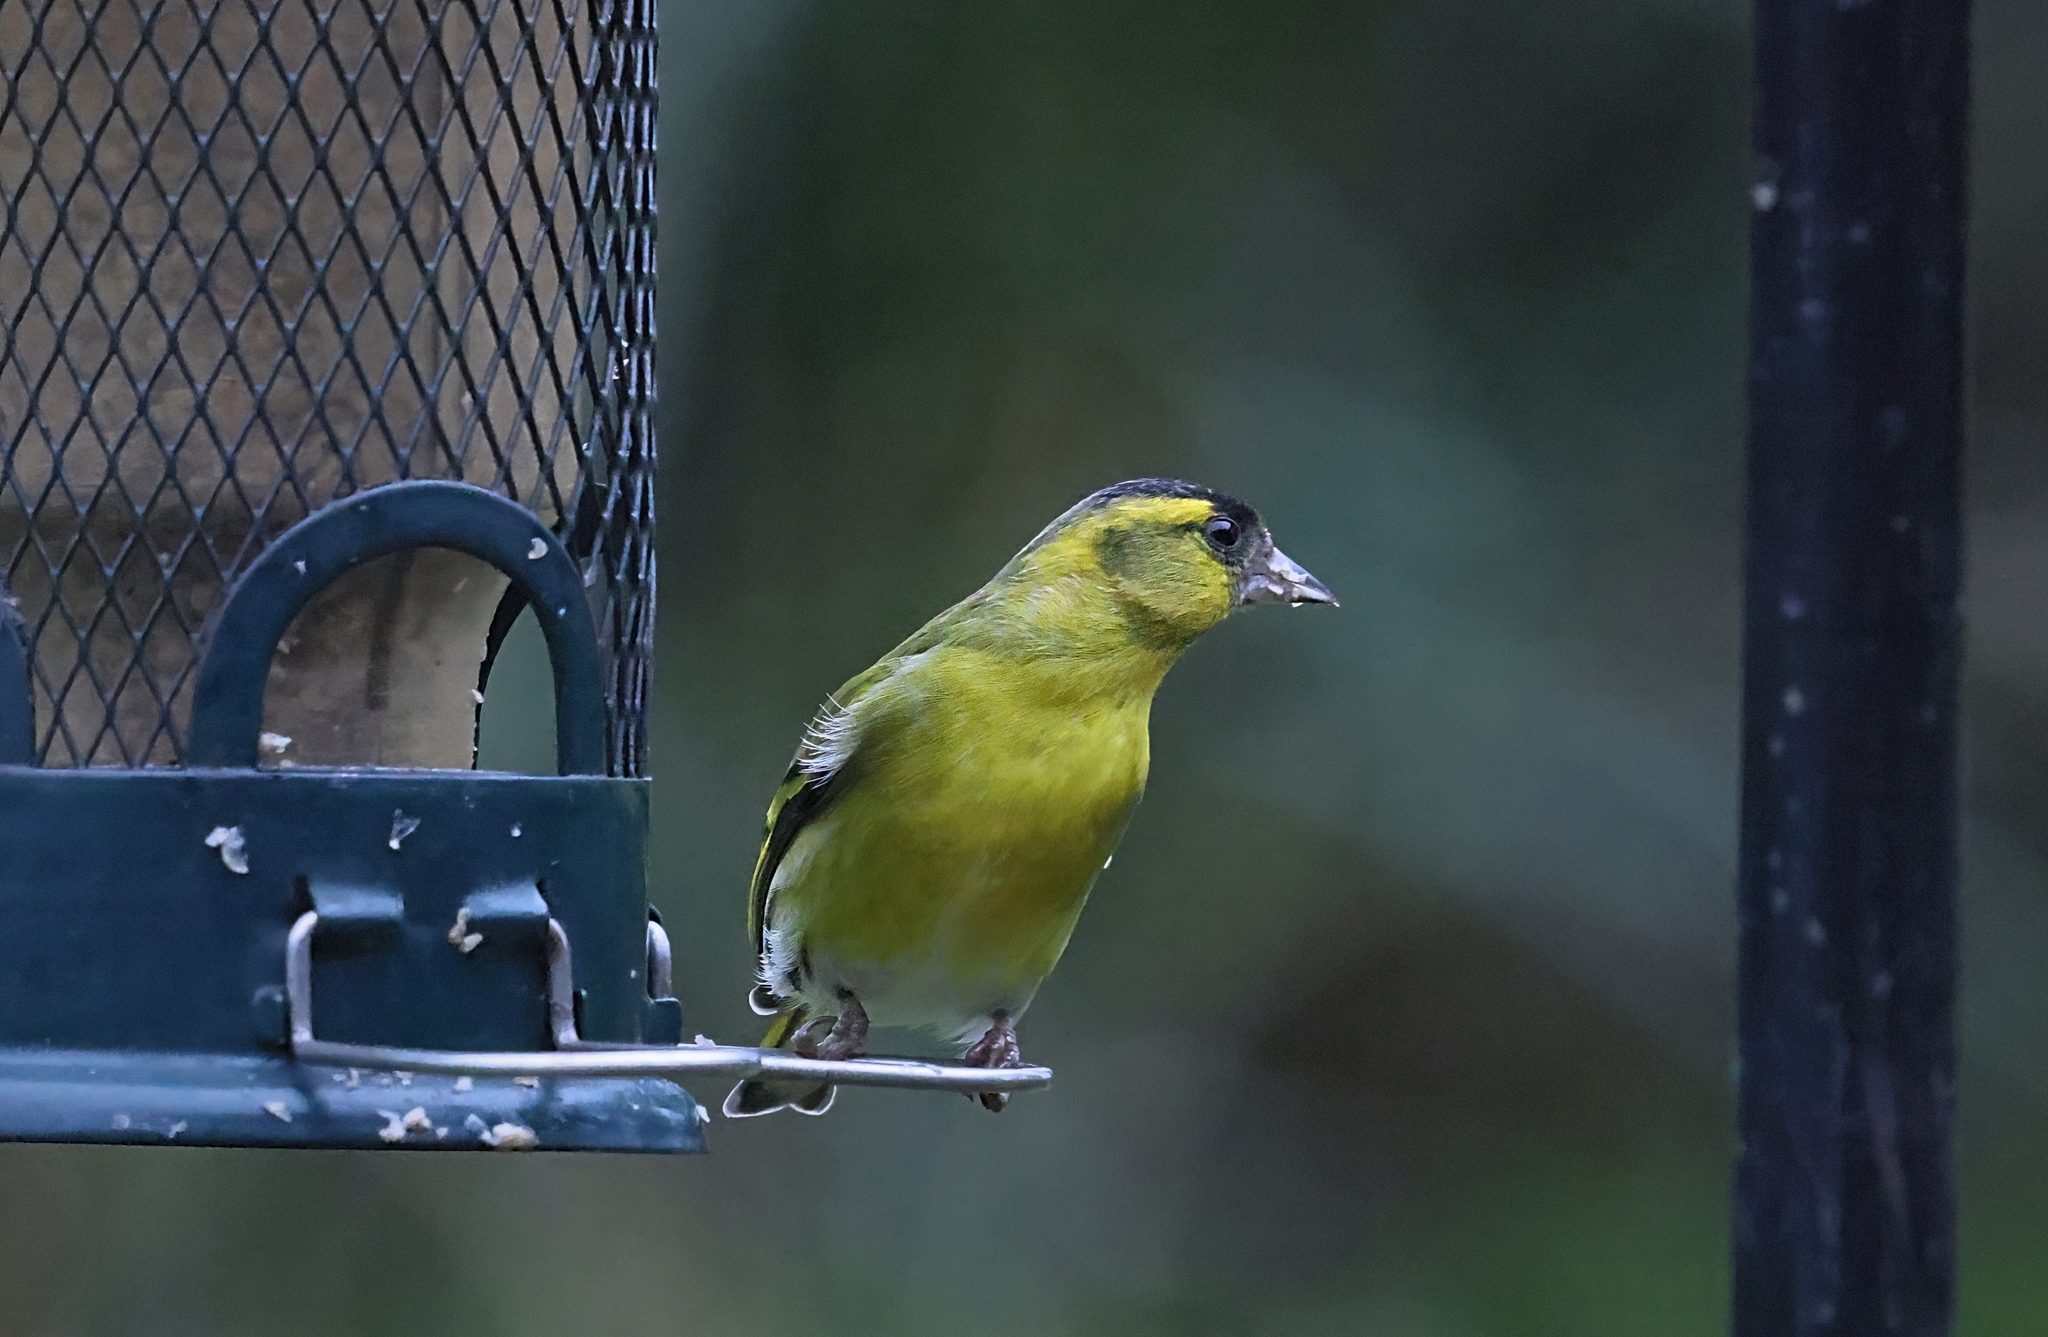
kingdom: Animalia
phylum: Chordata
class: Aves
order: Passeriformes
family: Fringillidae
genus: Spinus
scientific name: Spinus spinus
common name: Eurasian siskin
